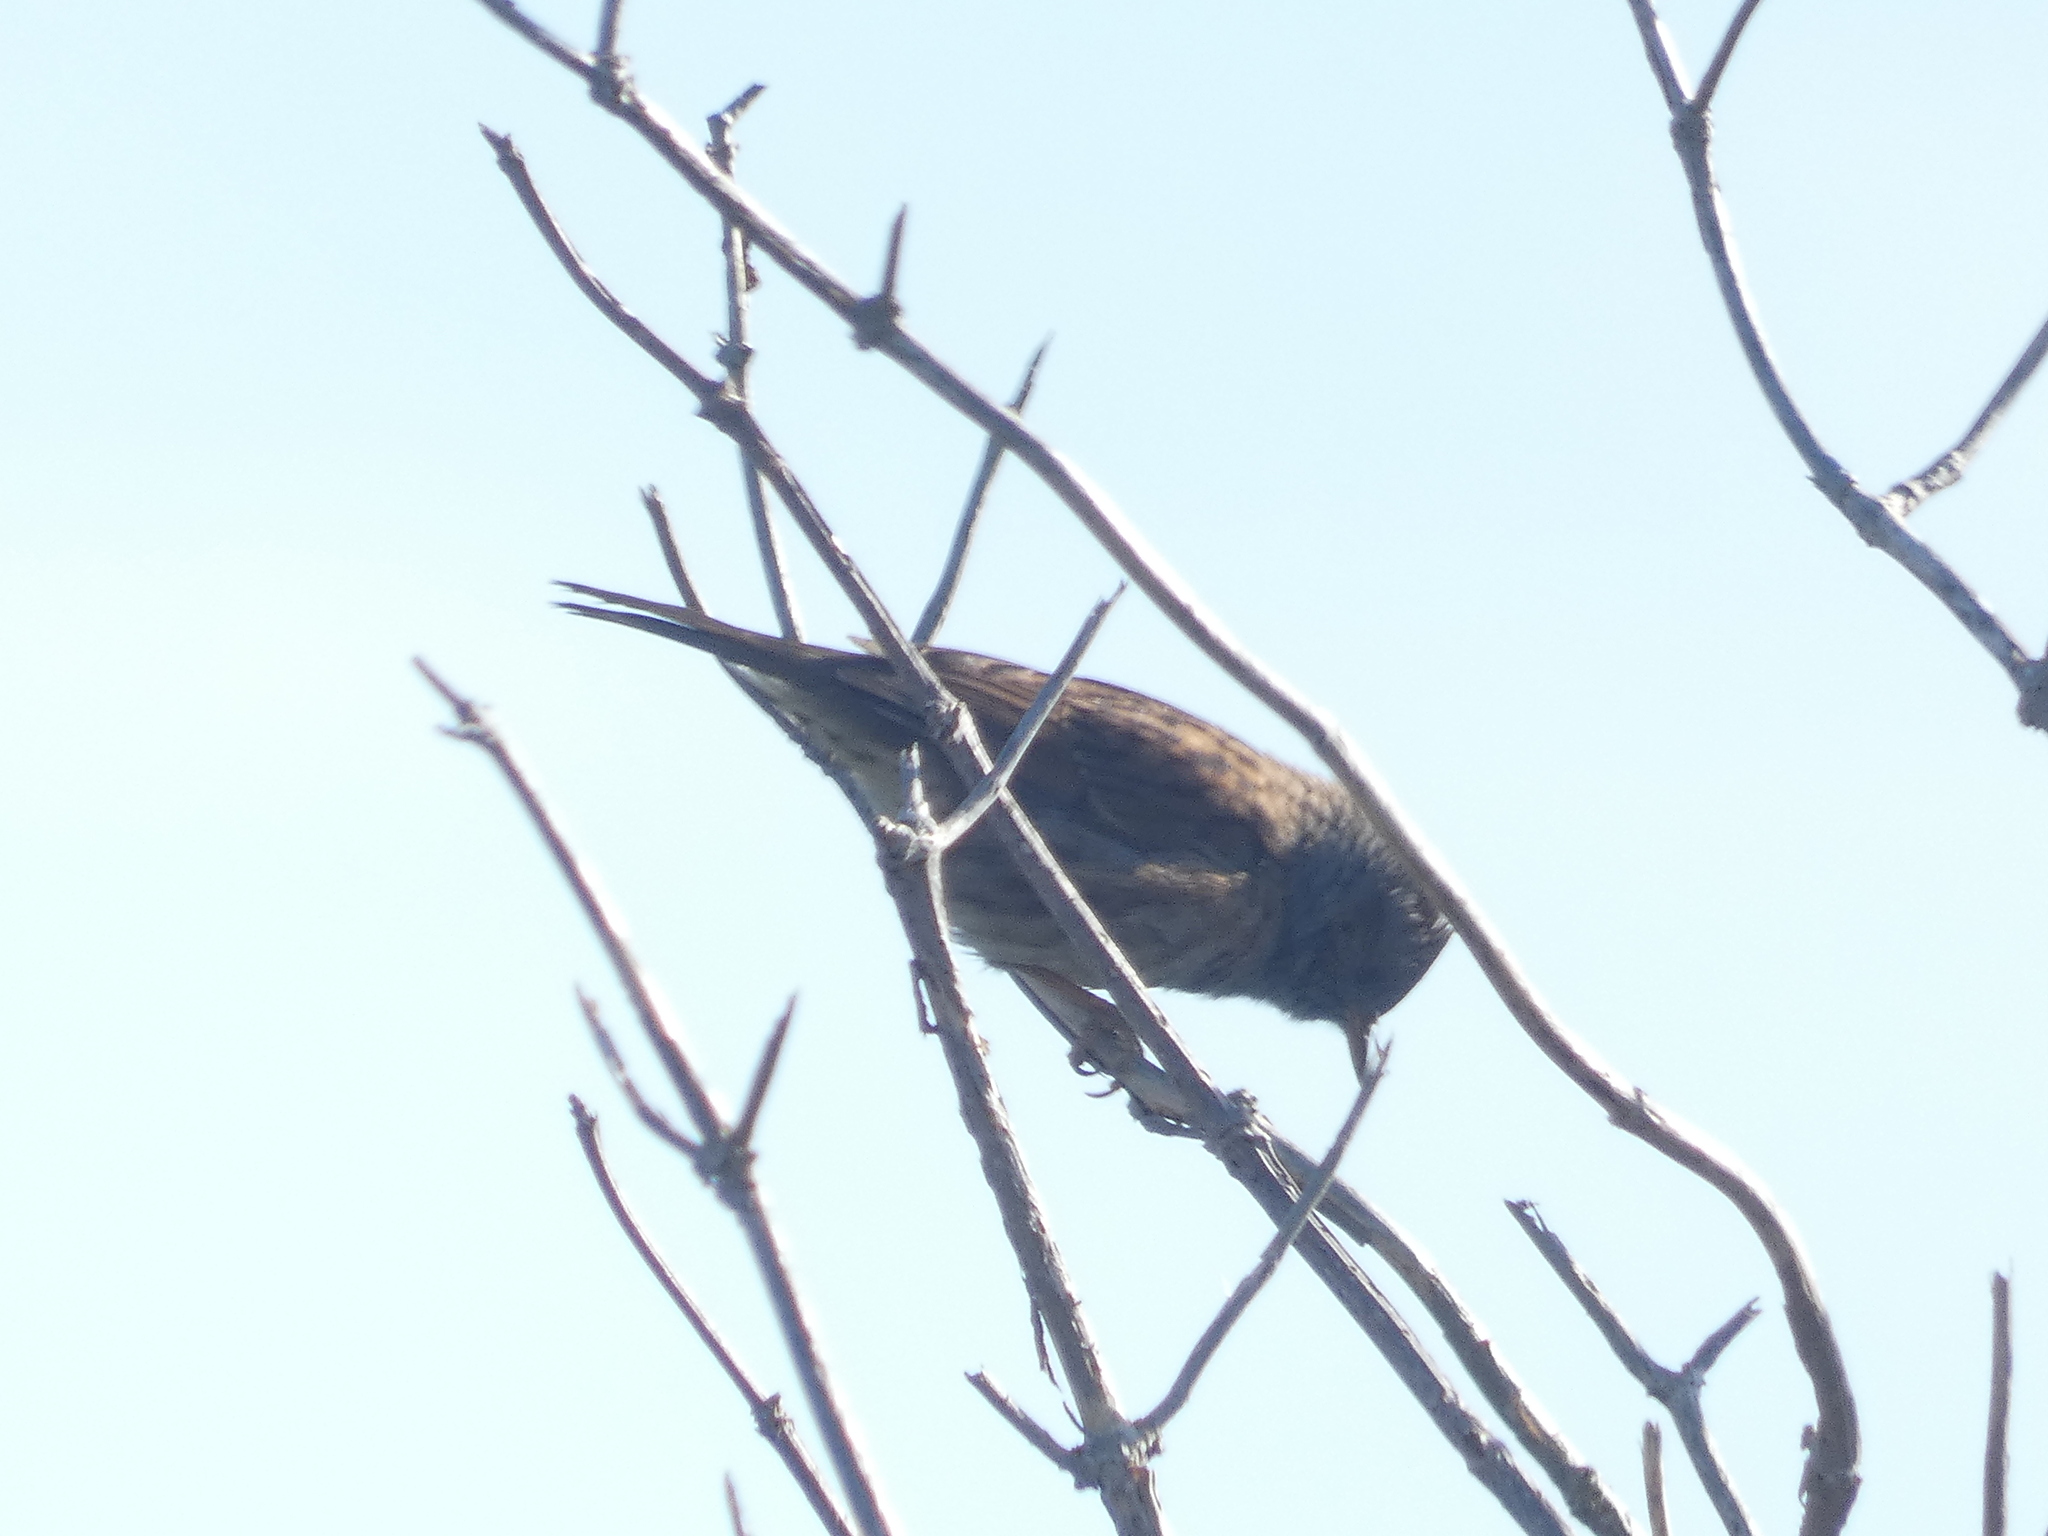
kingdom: Animalia
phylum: Chordata
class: Aves
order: Passeriformes
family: Prunellidae
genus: Prunella
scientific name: Prunella modularis
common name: Dunnock
